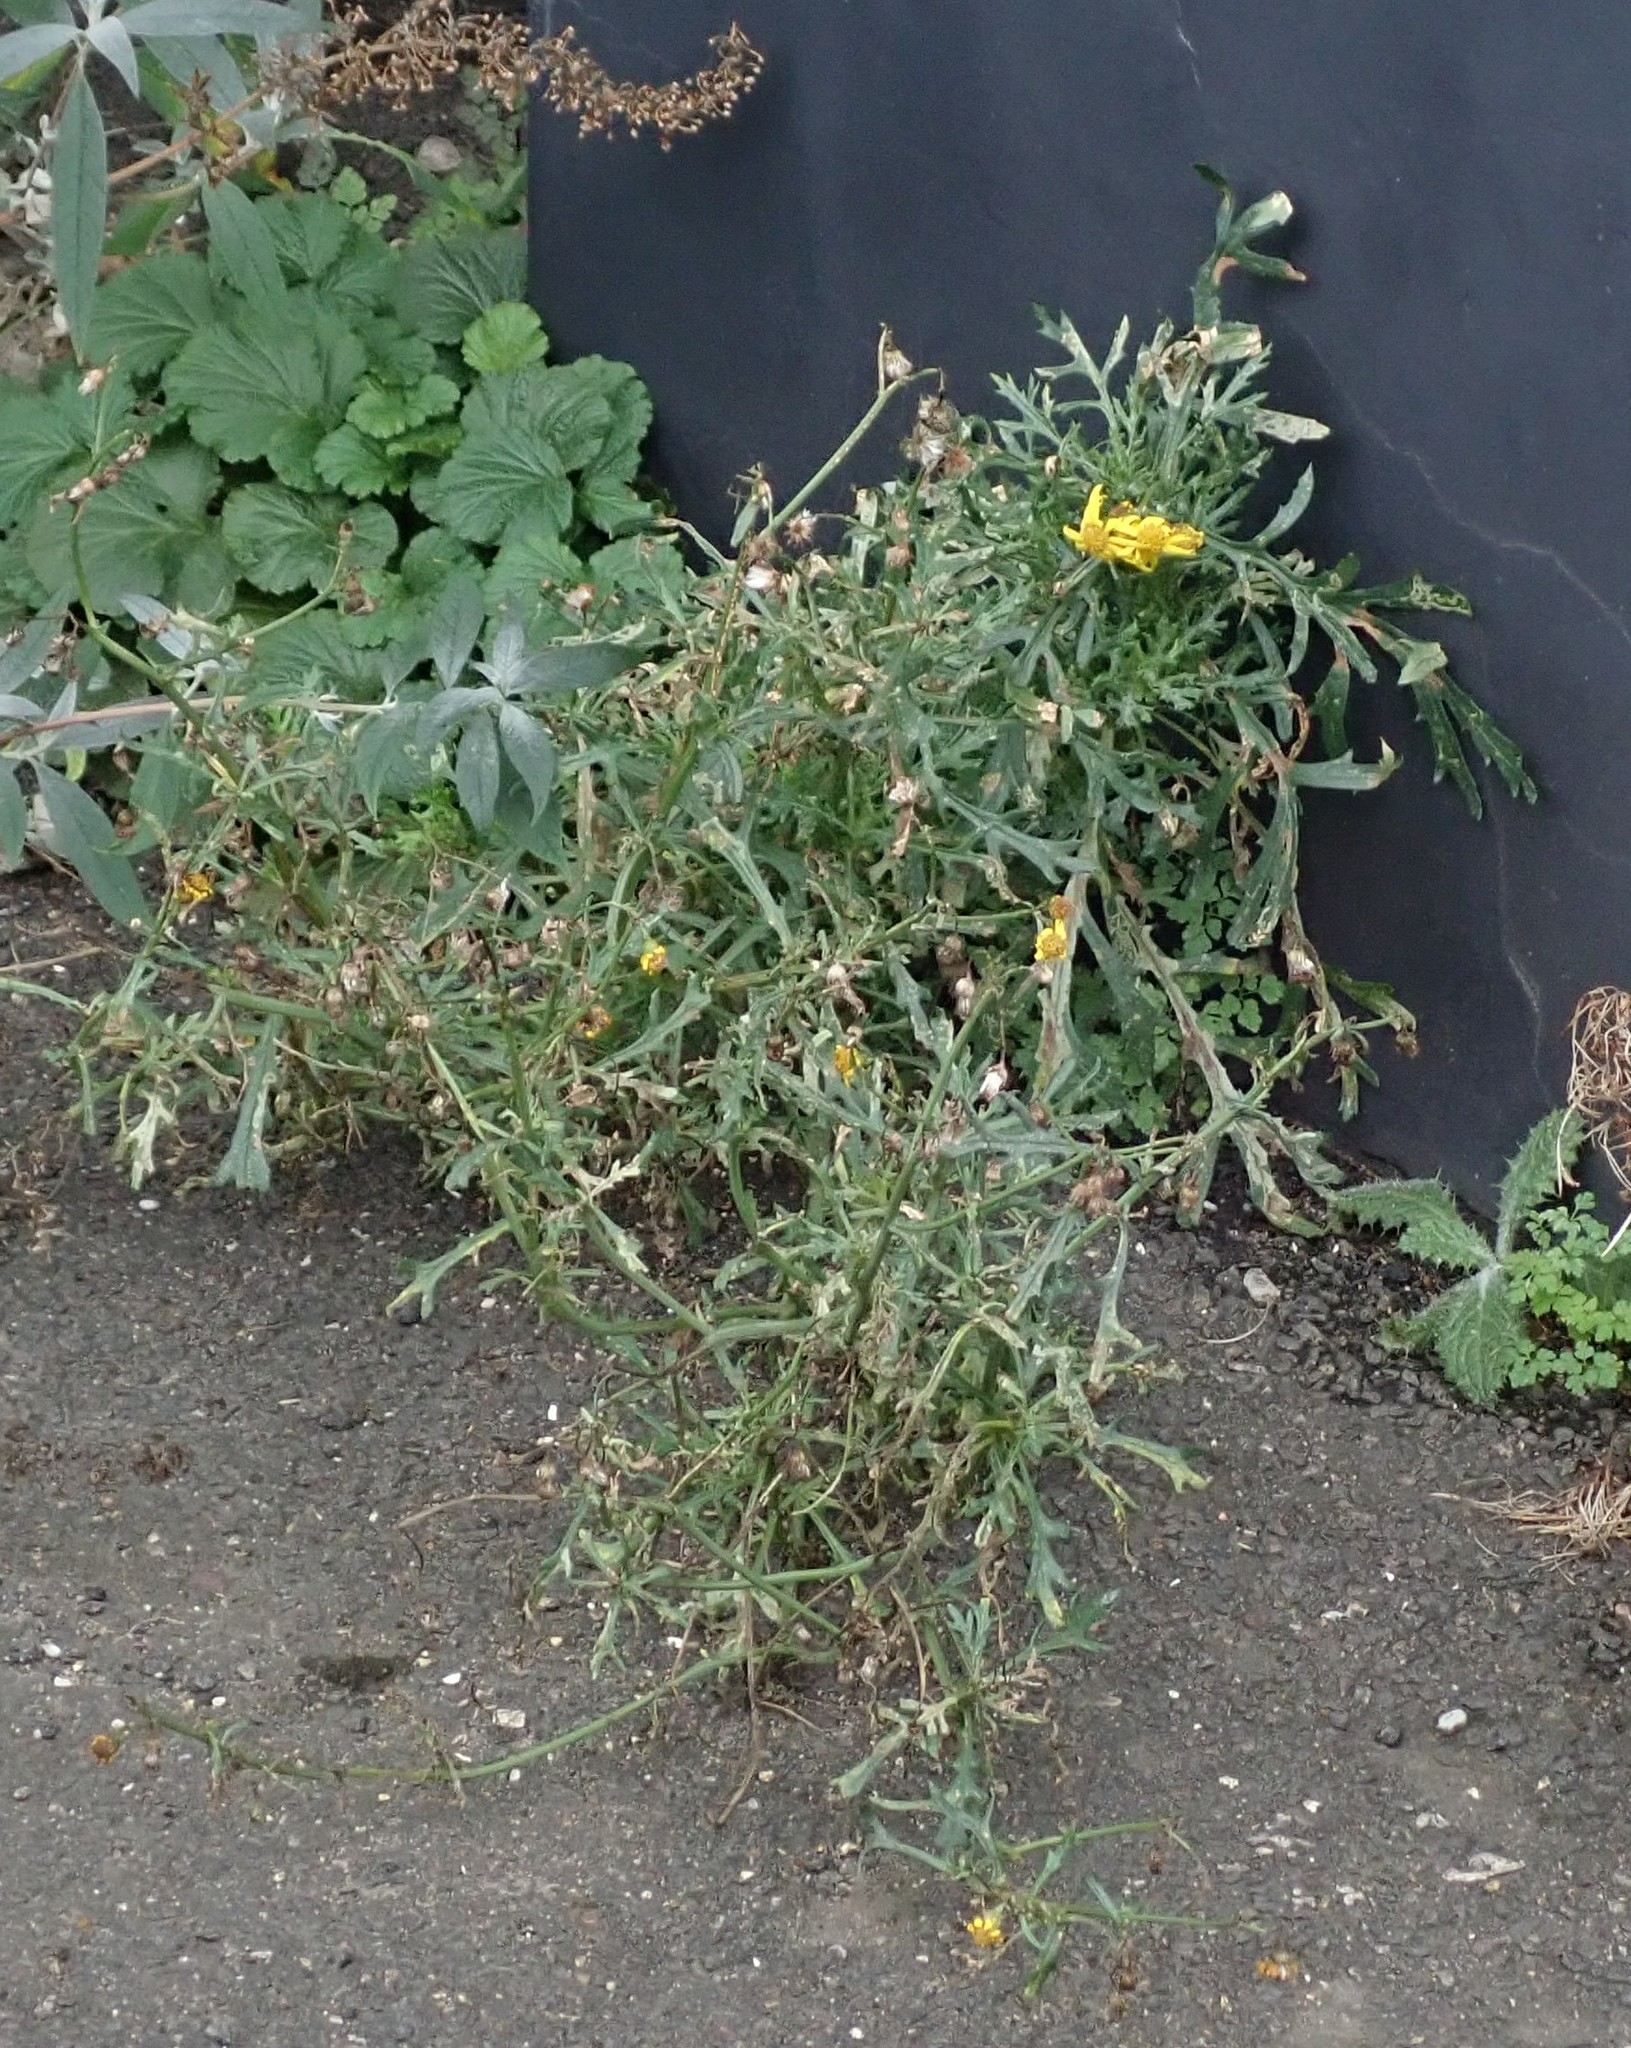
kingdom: Plantae
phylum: Tracheophyta
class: Magnoliopsida
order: Asterales
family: Asteraceae
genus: Senecio
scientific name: Senecio squalidus
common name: Oxford ragwort
